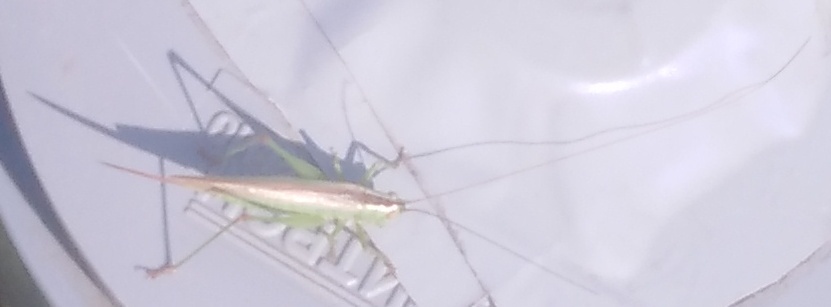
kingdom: Animalia
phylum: Arthropoda
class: Insecta
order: Orthoptera
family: Tettigoniidae
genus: Conocephalus
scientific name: Conocephalus fuscus
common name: Long-winged conehead
